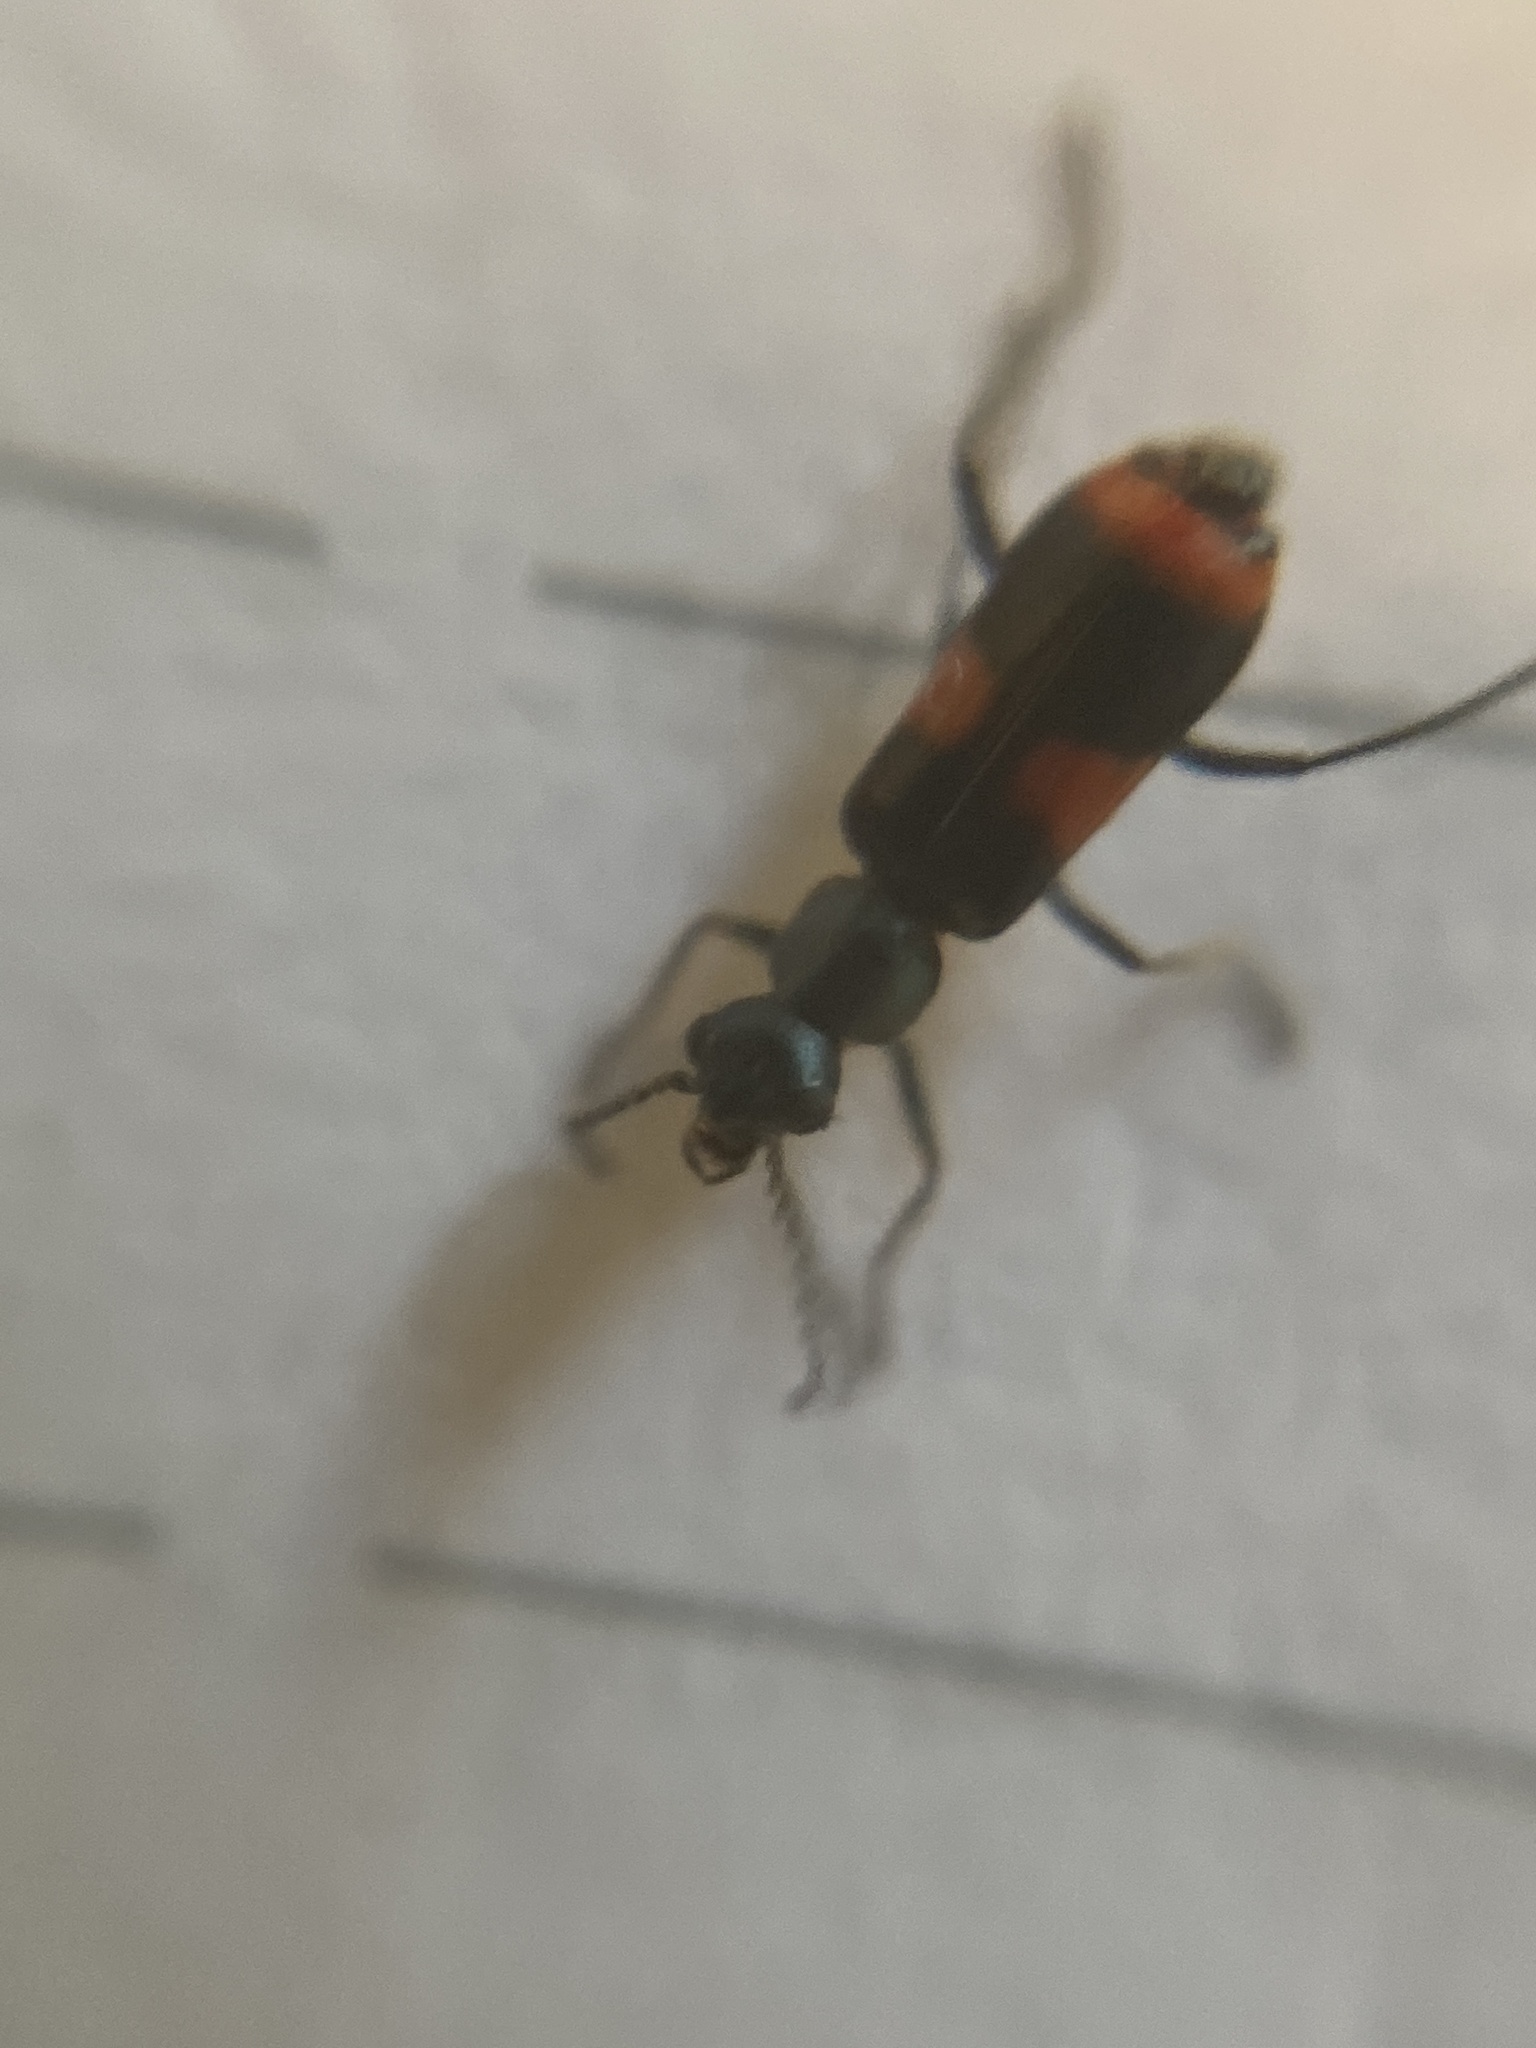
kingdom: Animalia
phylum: Arthropoda
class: Insecta
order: Coleoptera
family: Melyridae
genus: Anthocomus
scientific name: Anthocomus fasciatus
